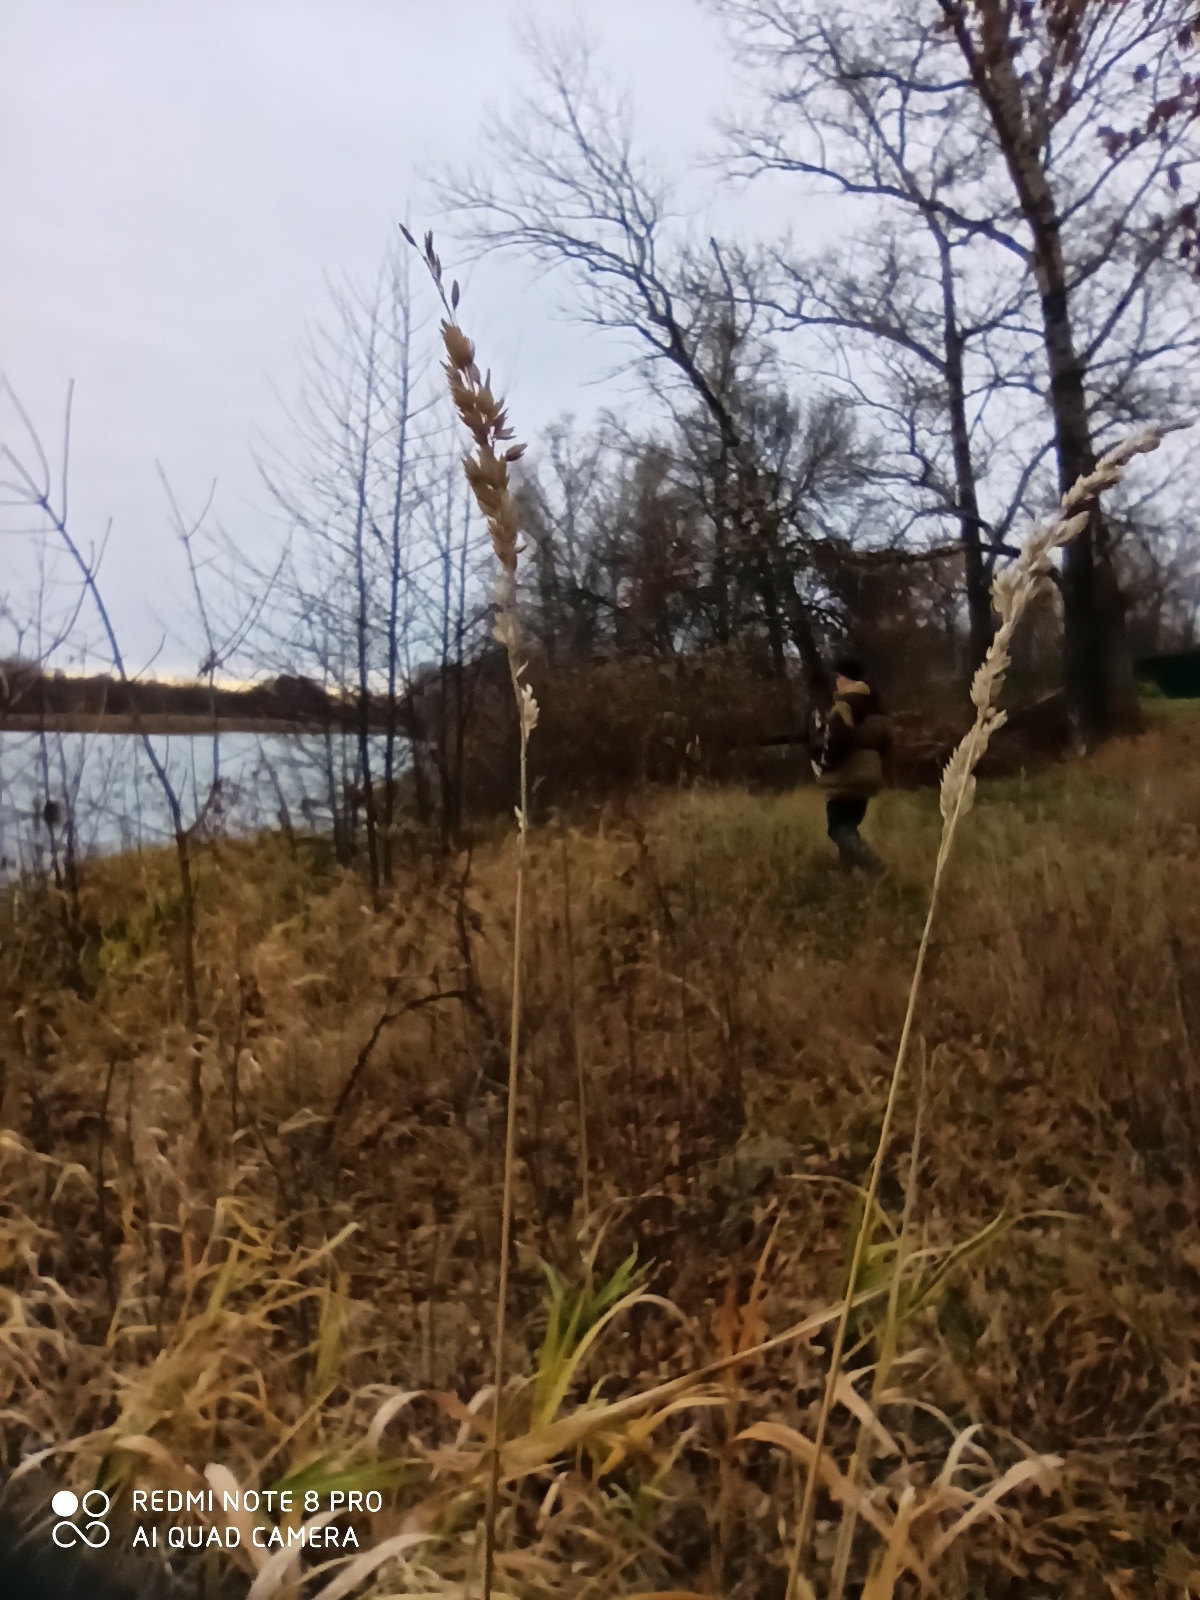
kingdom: Plantae
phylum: Tracheophyta
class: Liliopsida
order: Poales
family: Poaceae
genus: Phalaris
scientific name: Phalaris arundinacea
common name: Reed canary-grass
